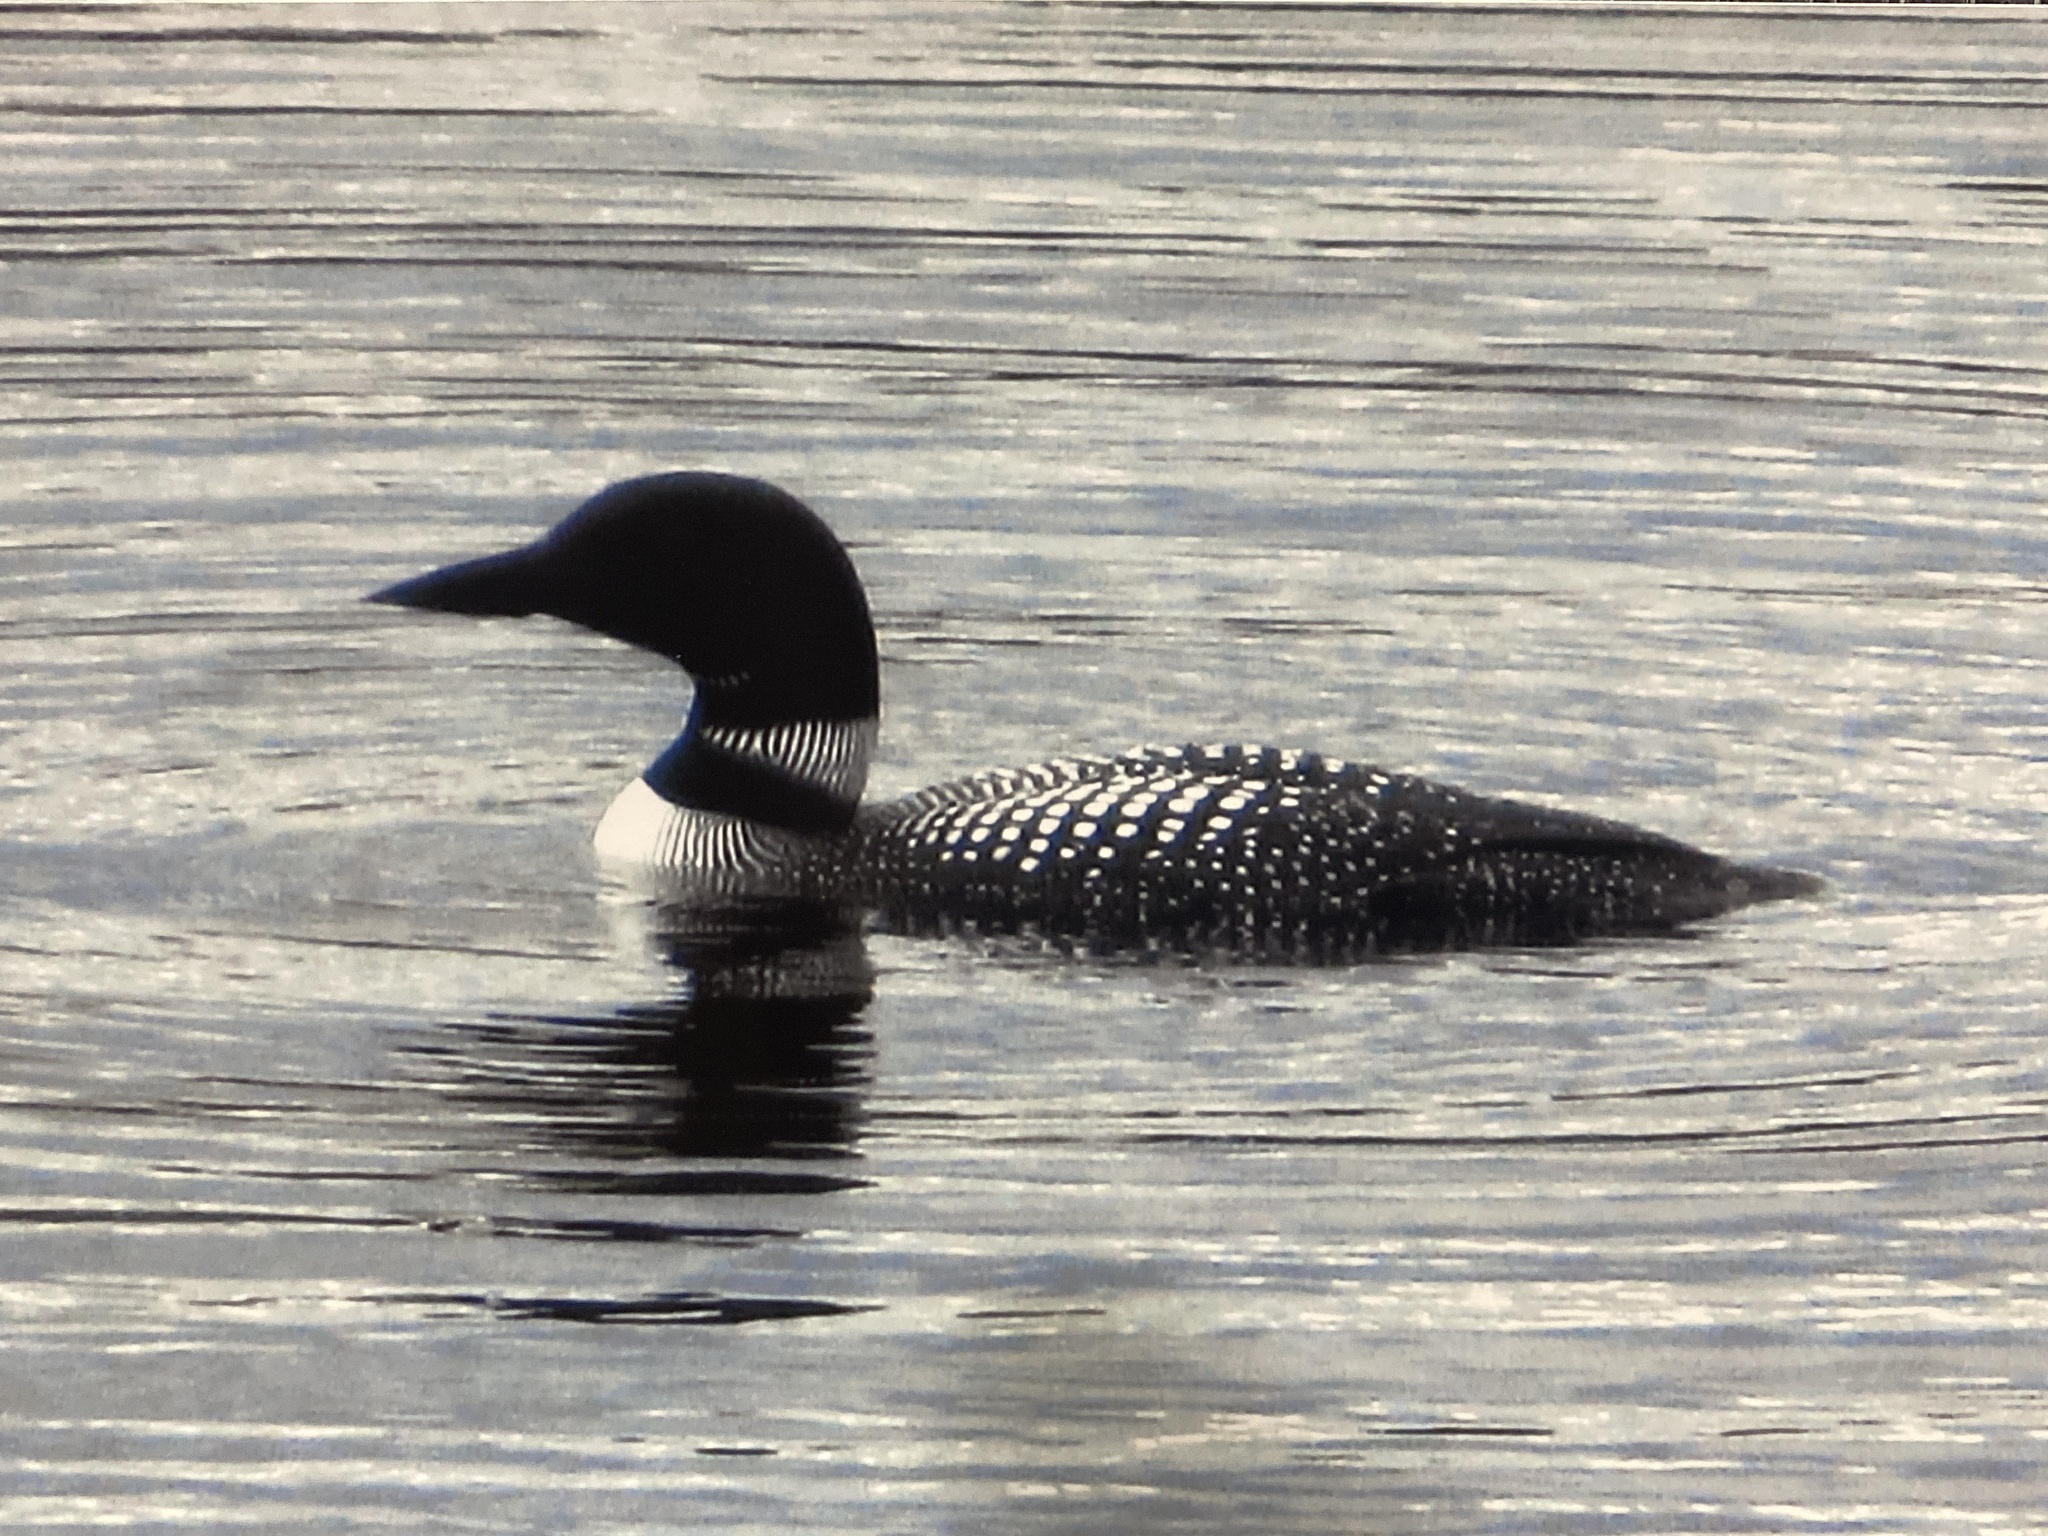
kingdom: Animalia
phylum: Chordata
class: Aves
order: Gaviiformes
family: Gaviidae
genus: Gavia
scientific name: Gavia immer
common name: Common loon
